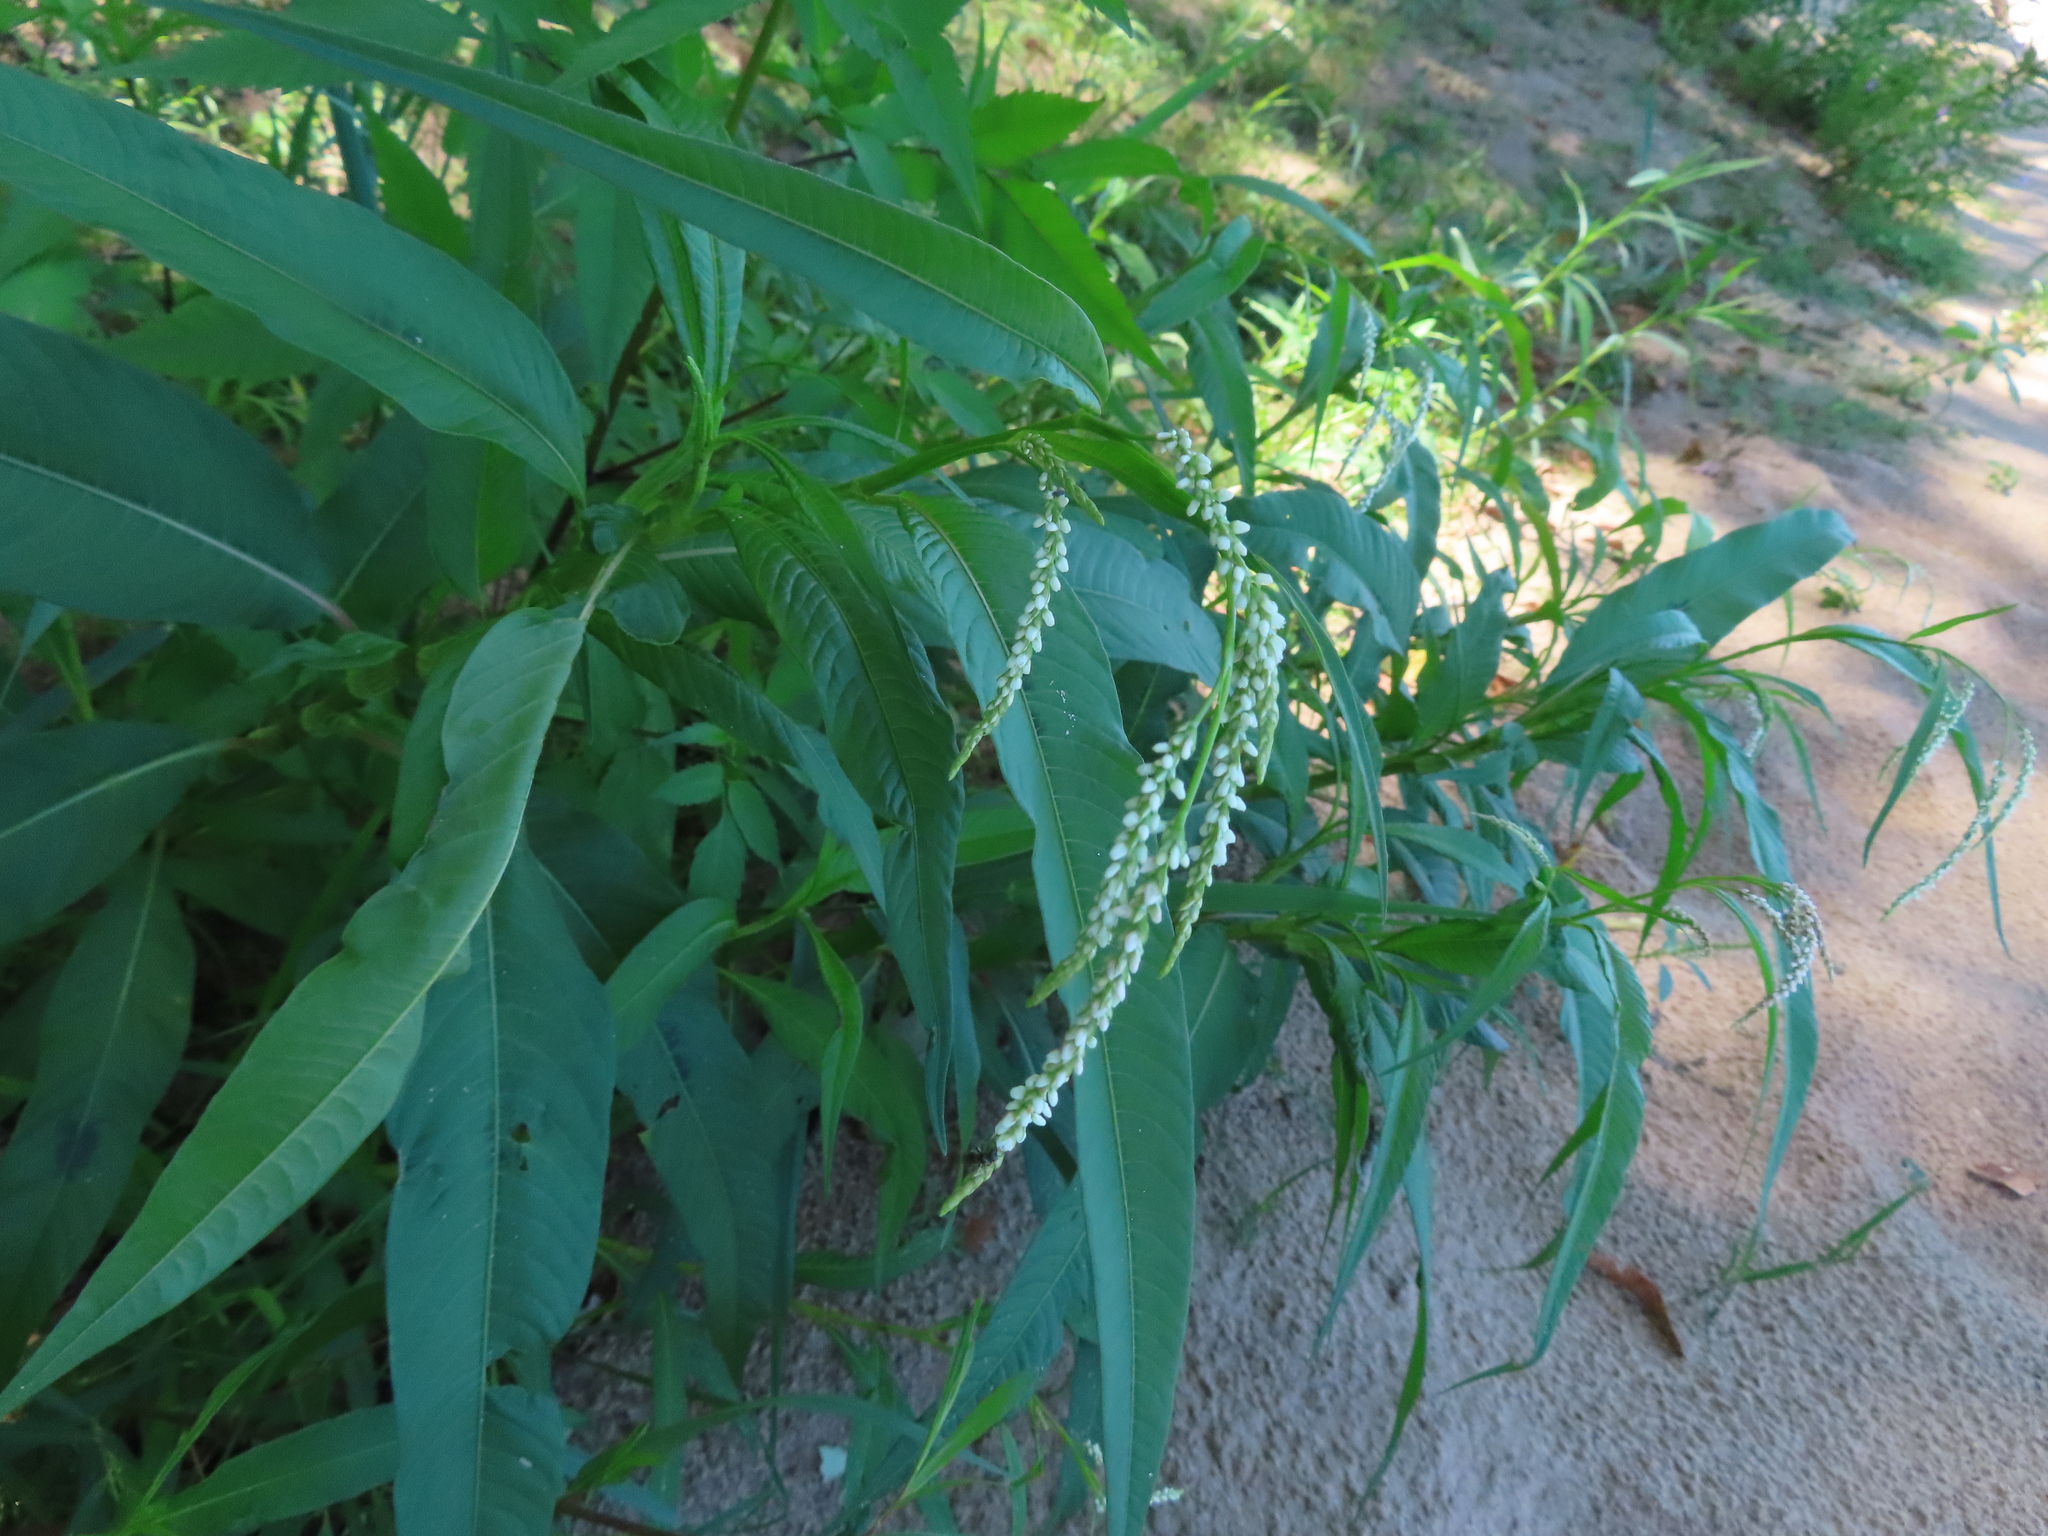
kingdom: Plantae
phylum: Tracheophyta
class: Magnoliopsida
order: Caryophyllales
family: Polygonaceae
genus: Persicaria
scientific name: Persicaria lapathifolia
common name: Curlytop knotweed
